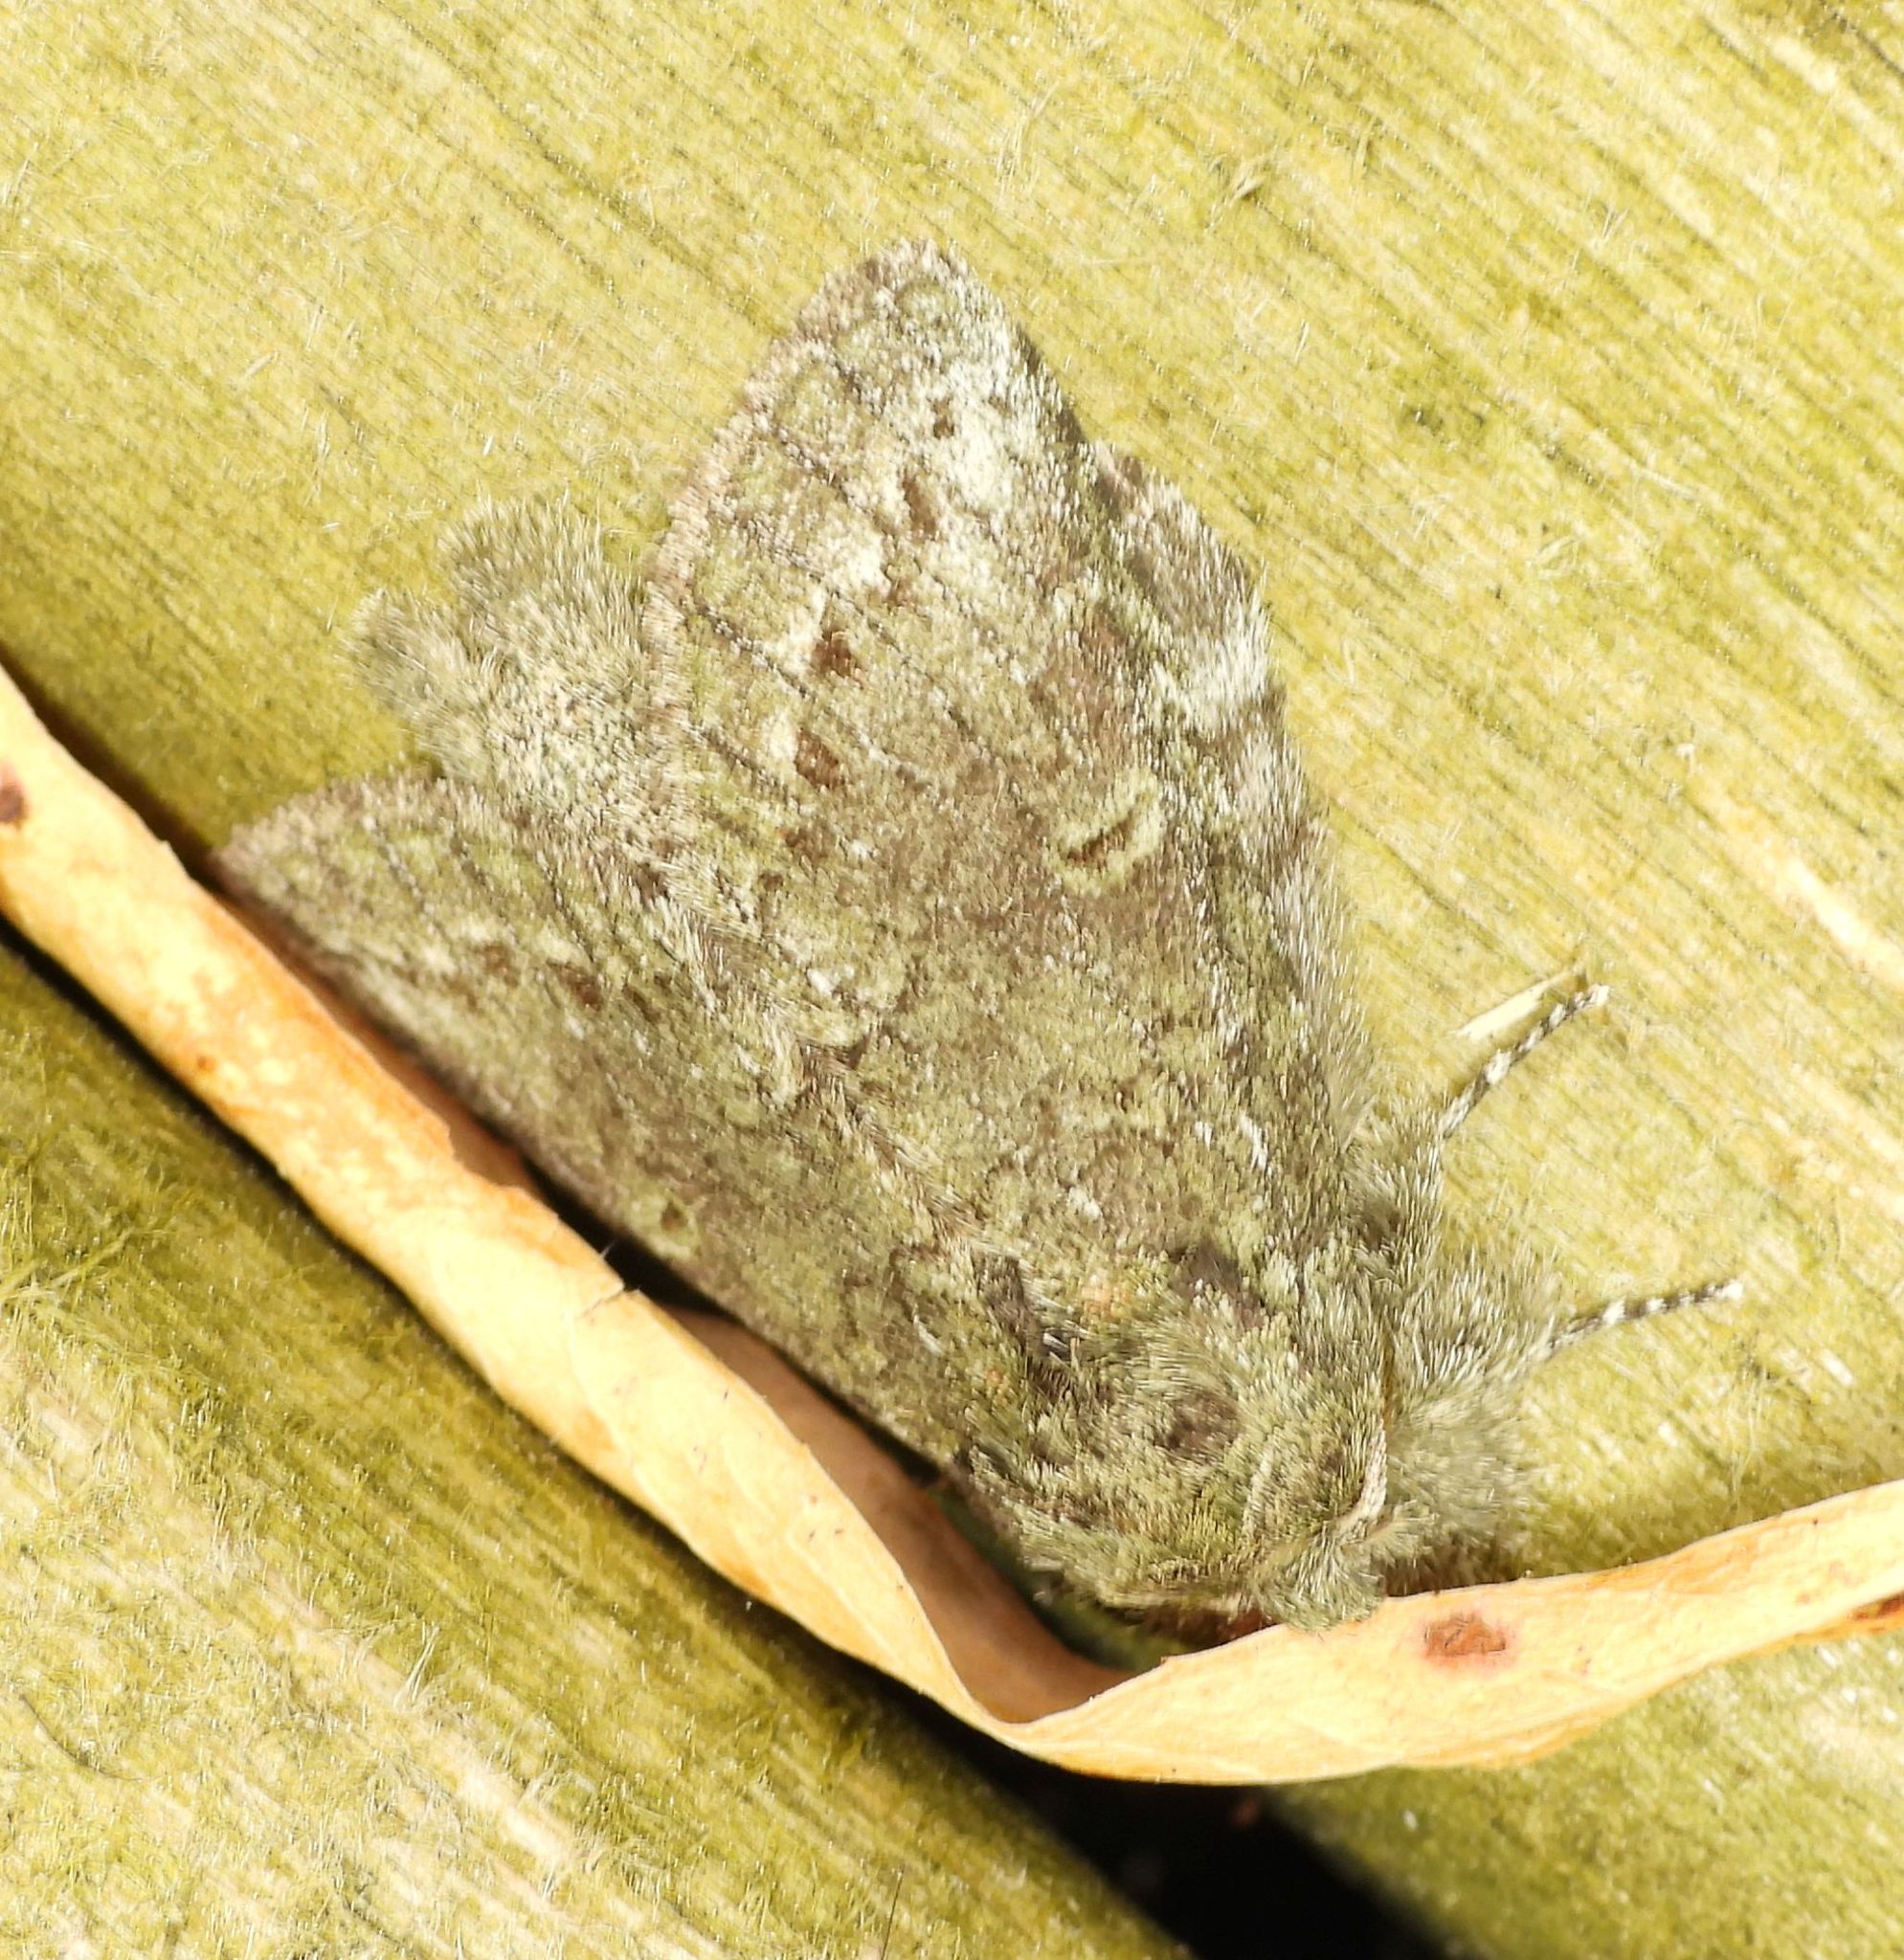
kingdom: Animalia
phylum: Arthropoda
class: Insecta
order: Lepidoptera
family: Notodontidae
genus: Disphragis
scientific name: Disphragis Cecrita guttivitta
